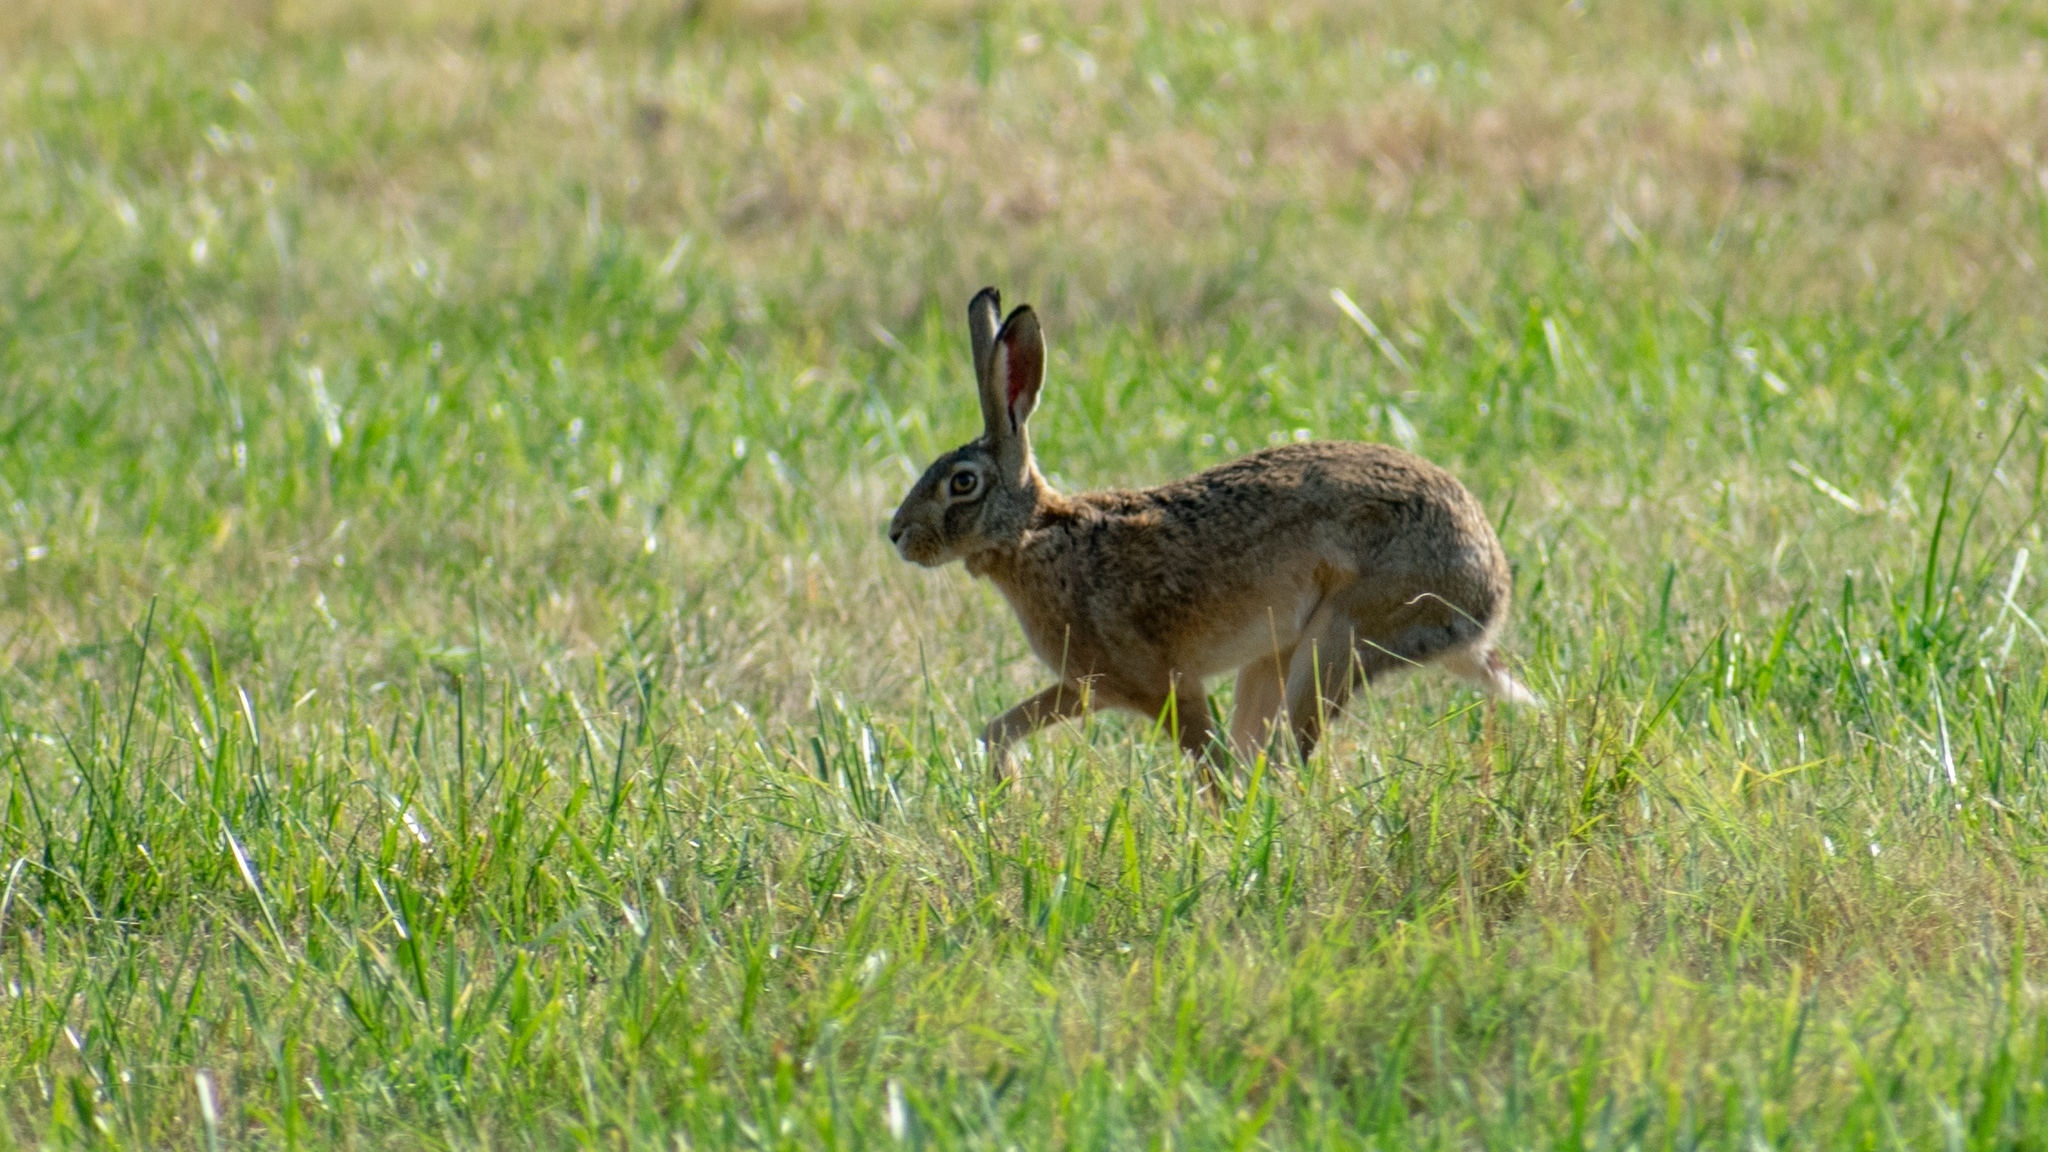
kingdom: Animalia
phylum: Chordata
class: Mammalia
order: Lagomorpha
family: Leporidae
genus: Lepus
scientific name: Lepus europaeus
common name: European hare
